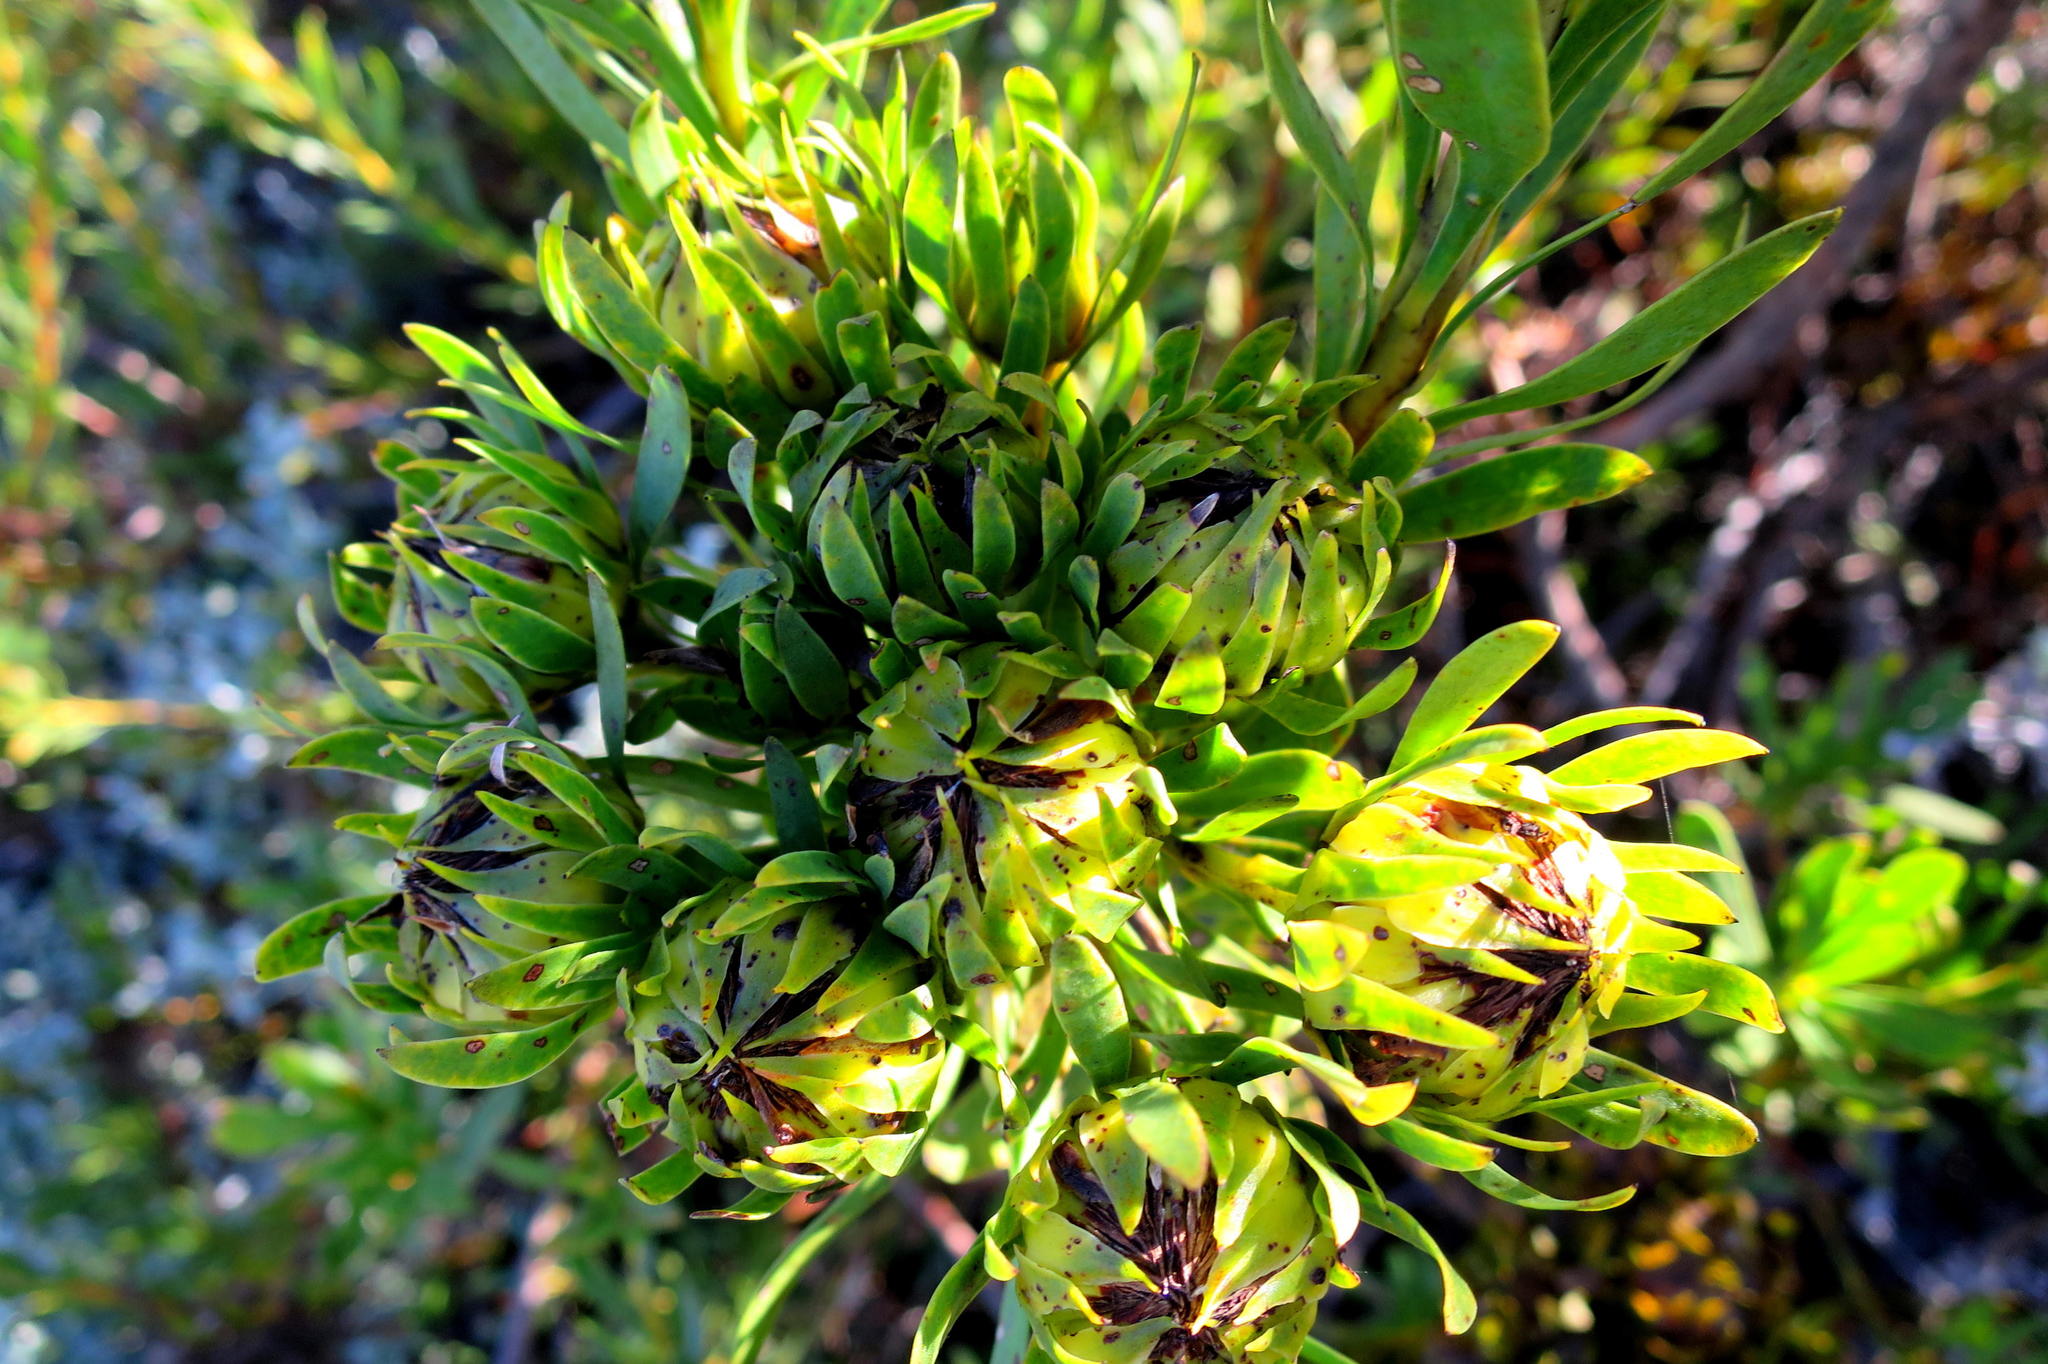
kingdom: Plantae
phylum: Tracheophyta
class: Magnoliopsida
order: Proteales
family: Proteaceae
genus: Aulax
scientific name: Aulax umbellata
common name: Broad-leaf featherbush
